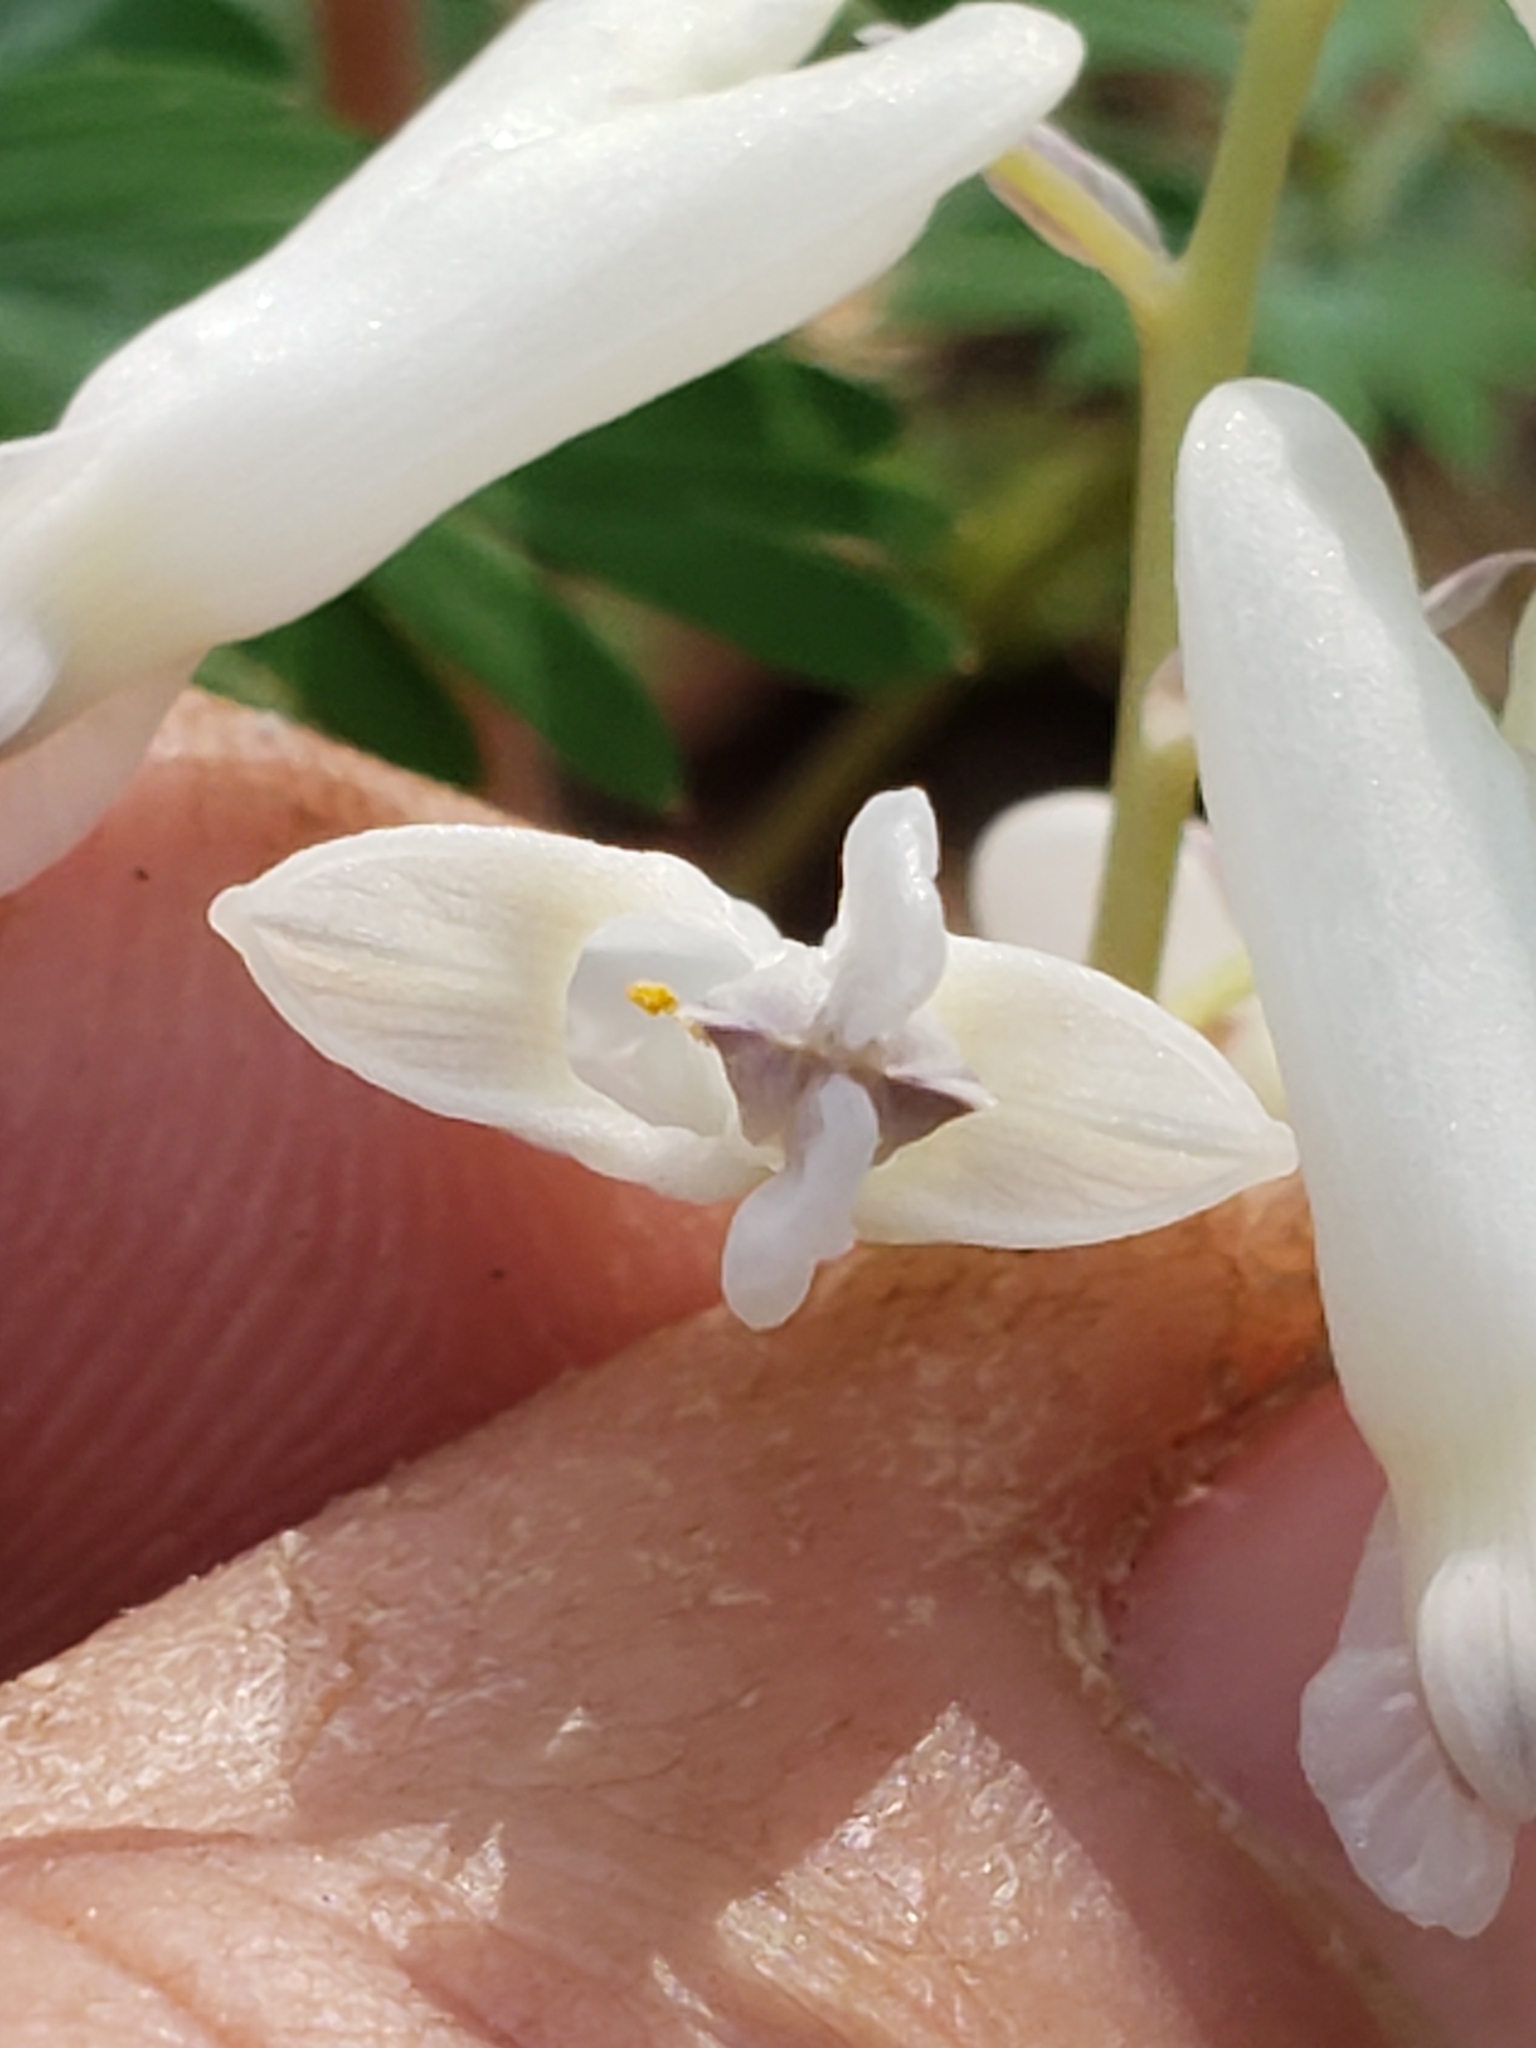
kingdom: Plantae
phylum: Tracheophyta
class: Magnoliopsida
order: Ranunculales
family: Papaveraceae
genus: Dicentra
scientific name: Dicentra canadensis
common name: Squirrel-corn
